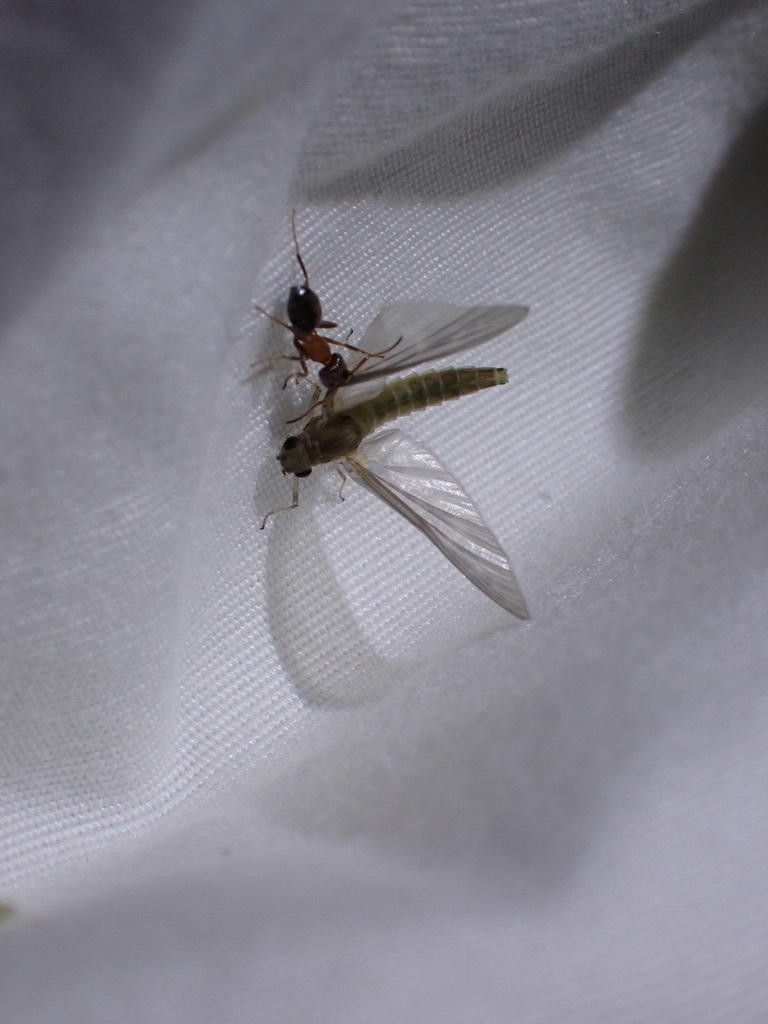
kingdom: Animalia
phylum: Arthropoda
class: Insecta
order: Hymenoptera
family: Formicidae
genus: Liometopum
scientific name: Liometopum occidentale
